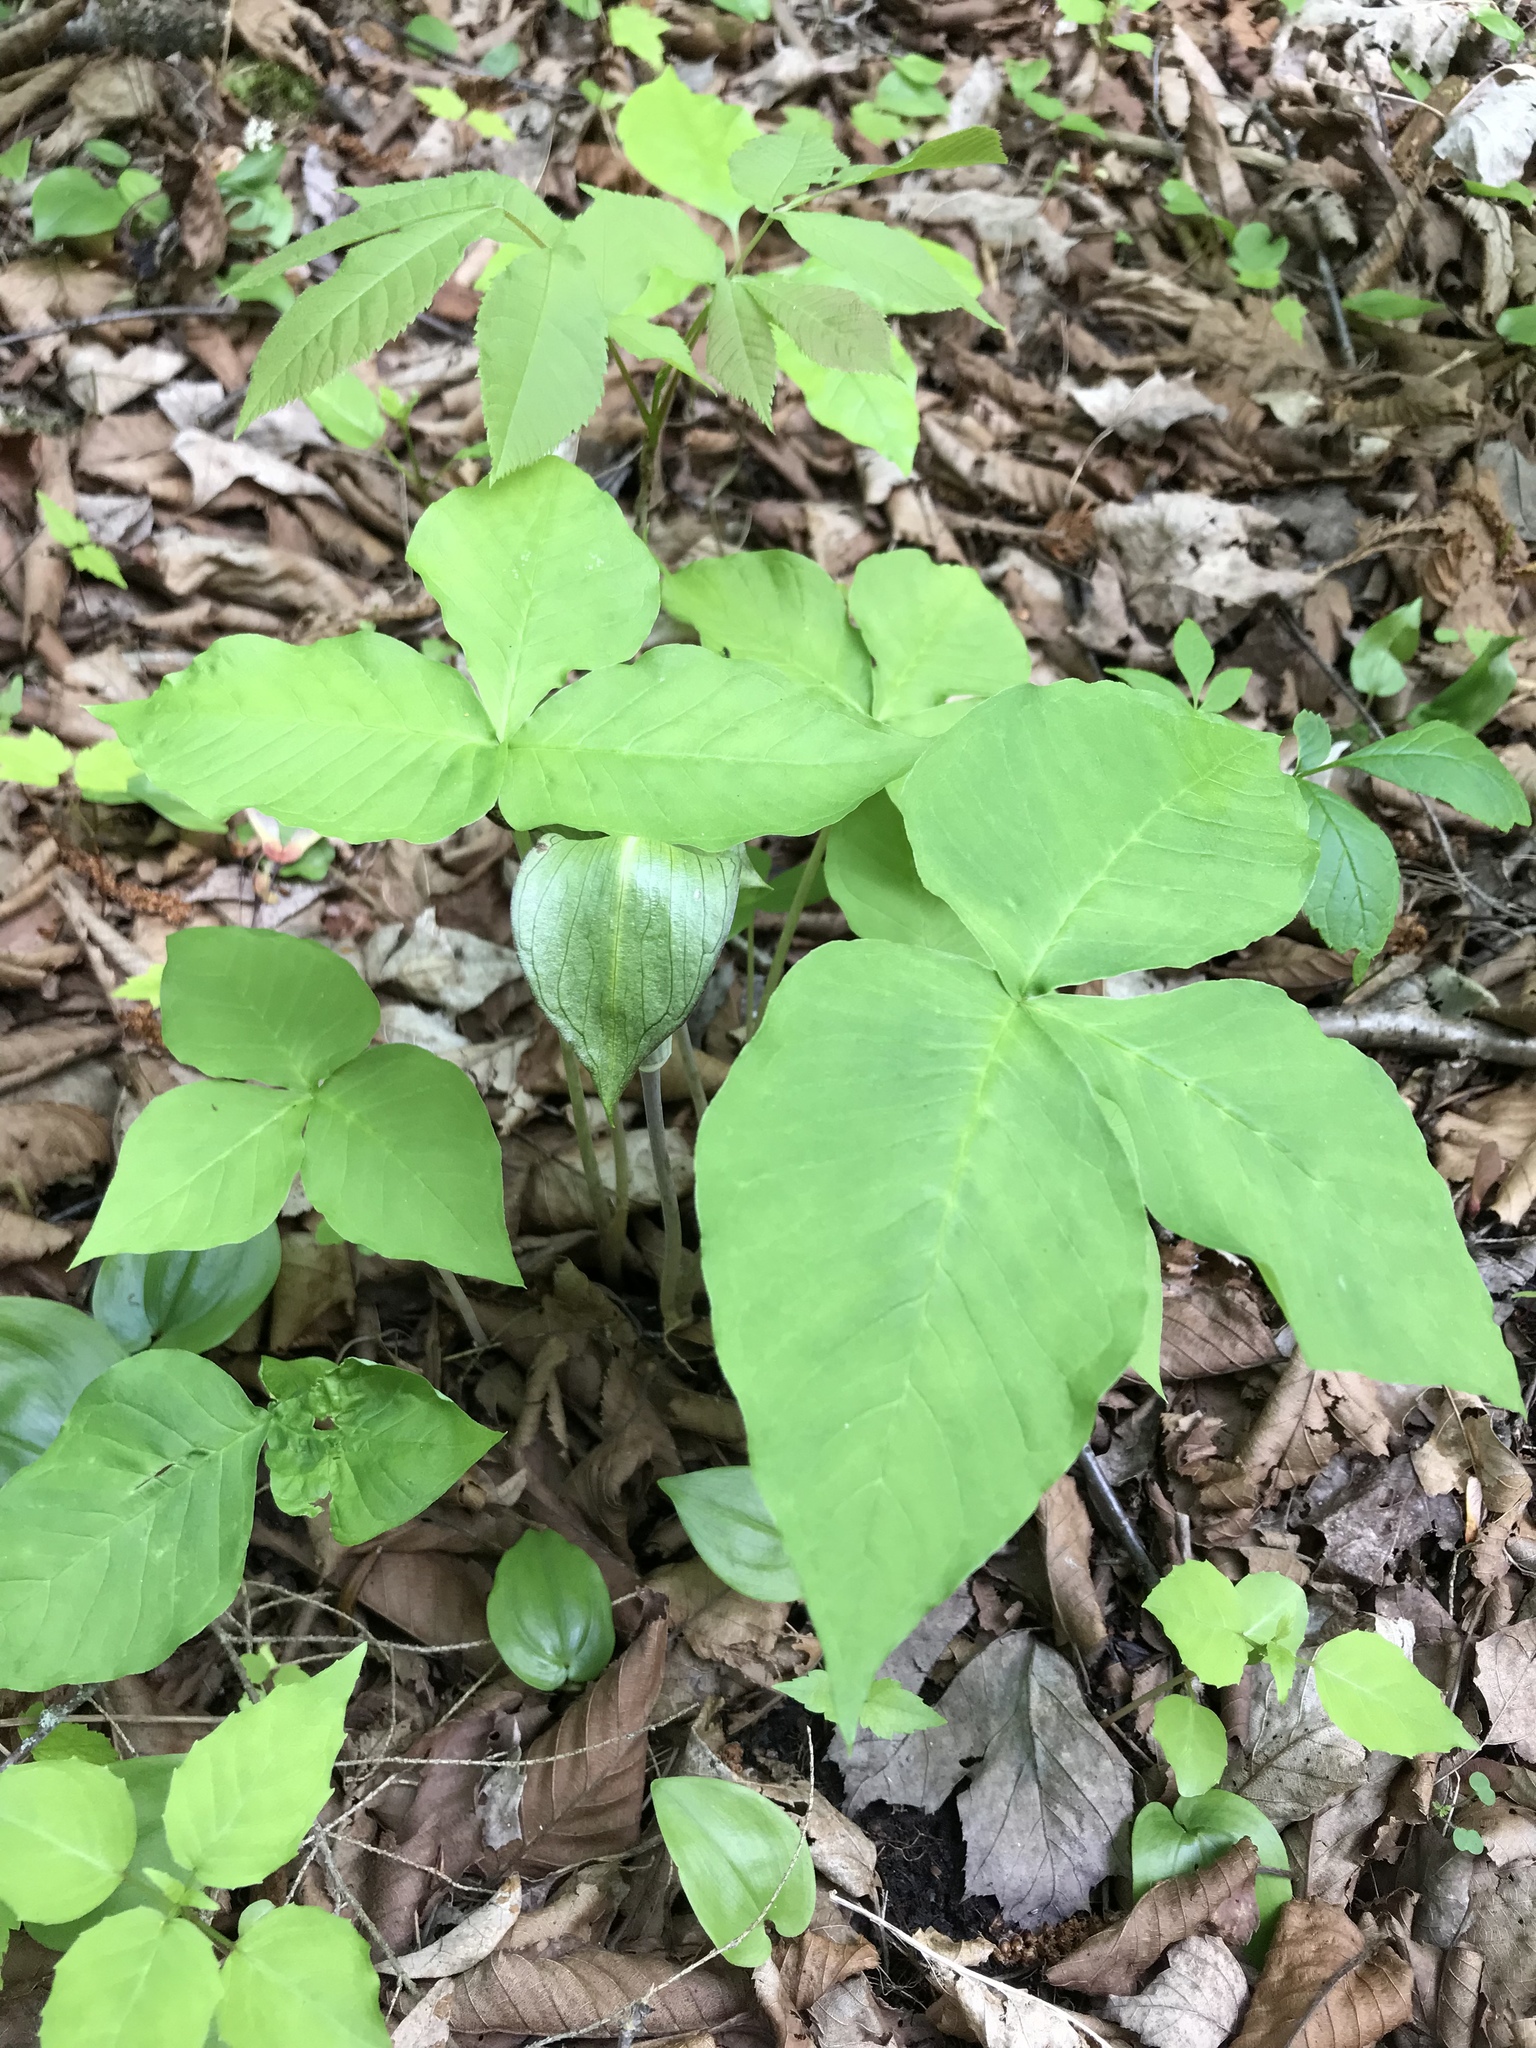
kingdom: Plantae
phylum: Tracheophyta
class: Liliopsida
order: Alismatales
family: Araceae
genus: Arisaema
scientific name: Arisaema triphyllum
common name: Jack-in-the-pulpit
